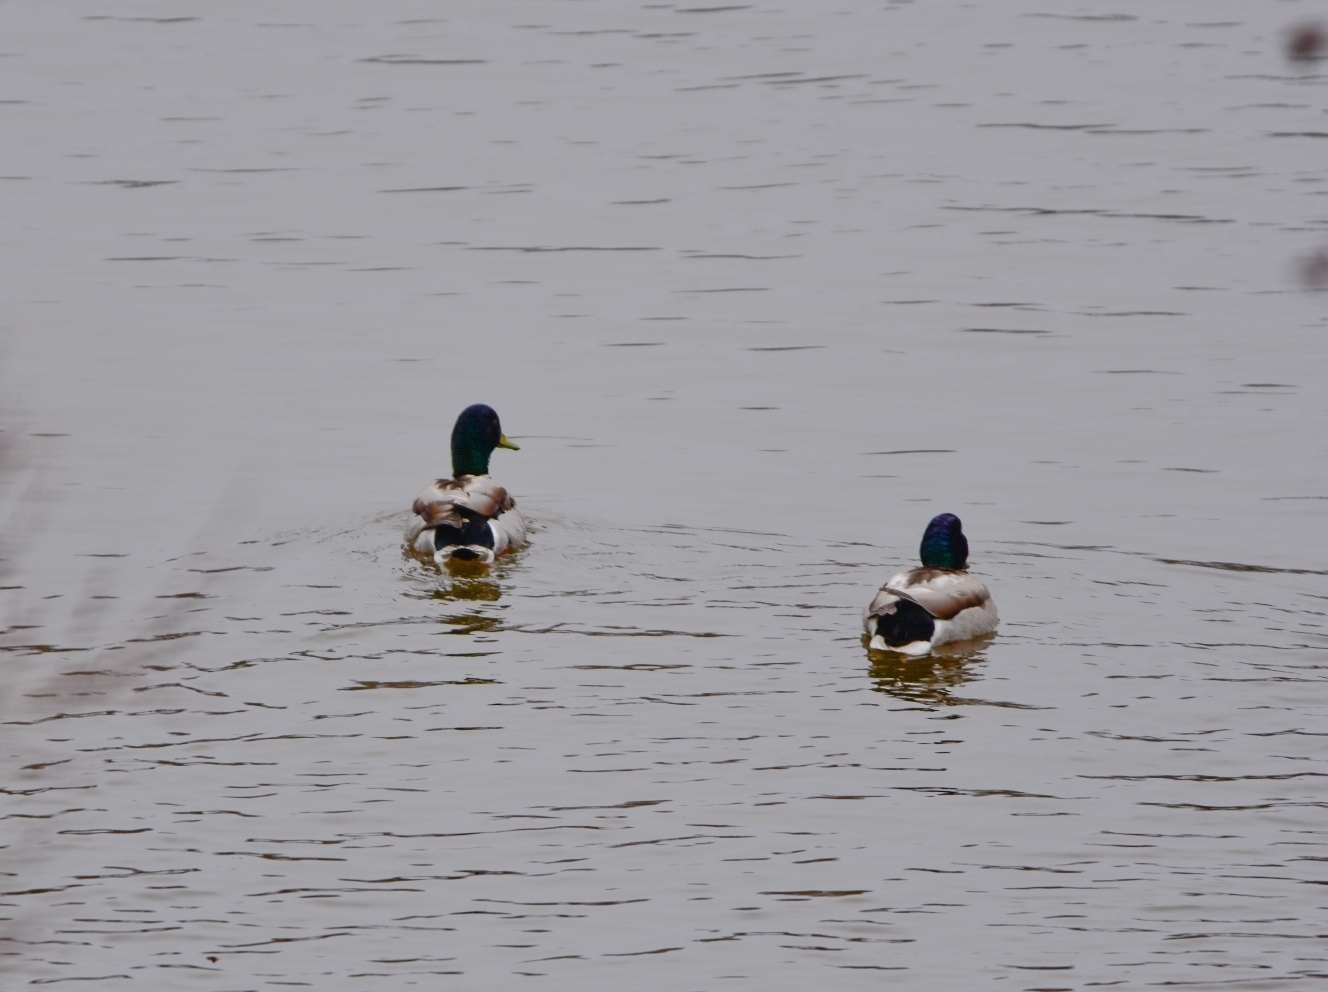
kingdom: Animalia
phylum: Chordata
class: Aves
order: Anseriformes
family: Anatidae
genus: Anas
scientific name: Anas platyrhynchos
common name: Mallard
